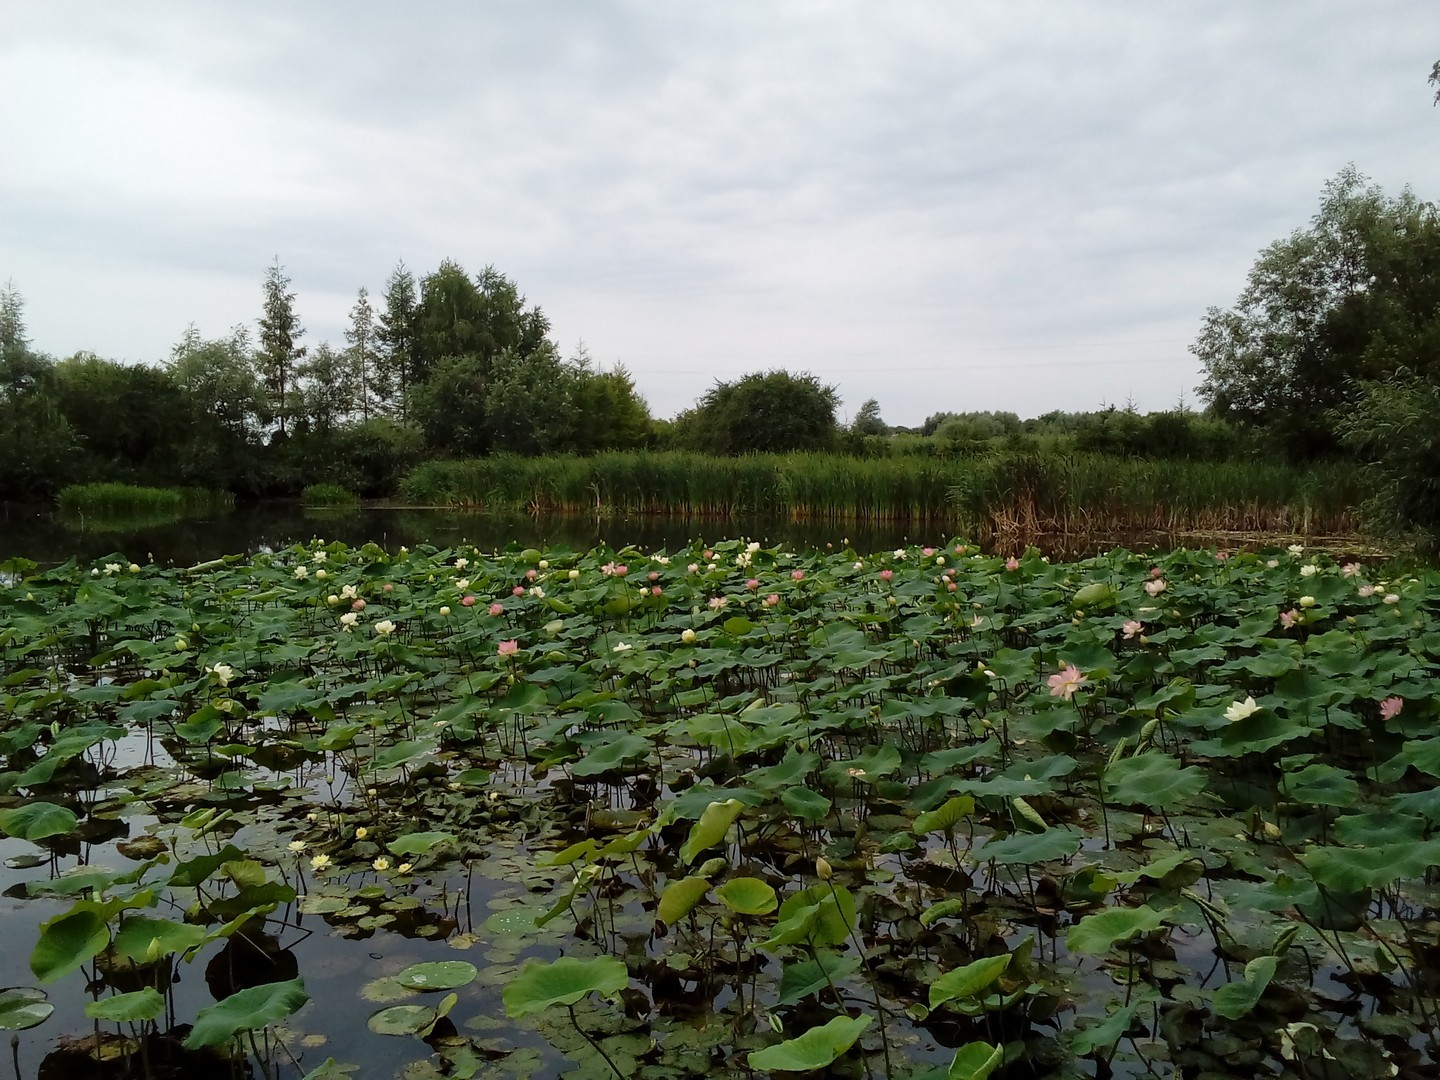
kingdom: Plantae
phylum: Tracheophyta
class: Magnoliopsida
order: Proteales
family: Nelumbonaceae
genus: Nelumbo
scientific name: Nelumbo nucifera
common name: Sacred lotus
